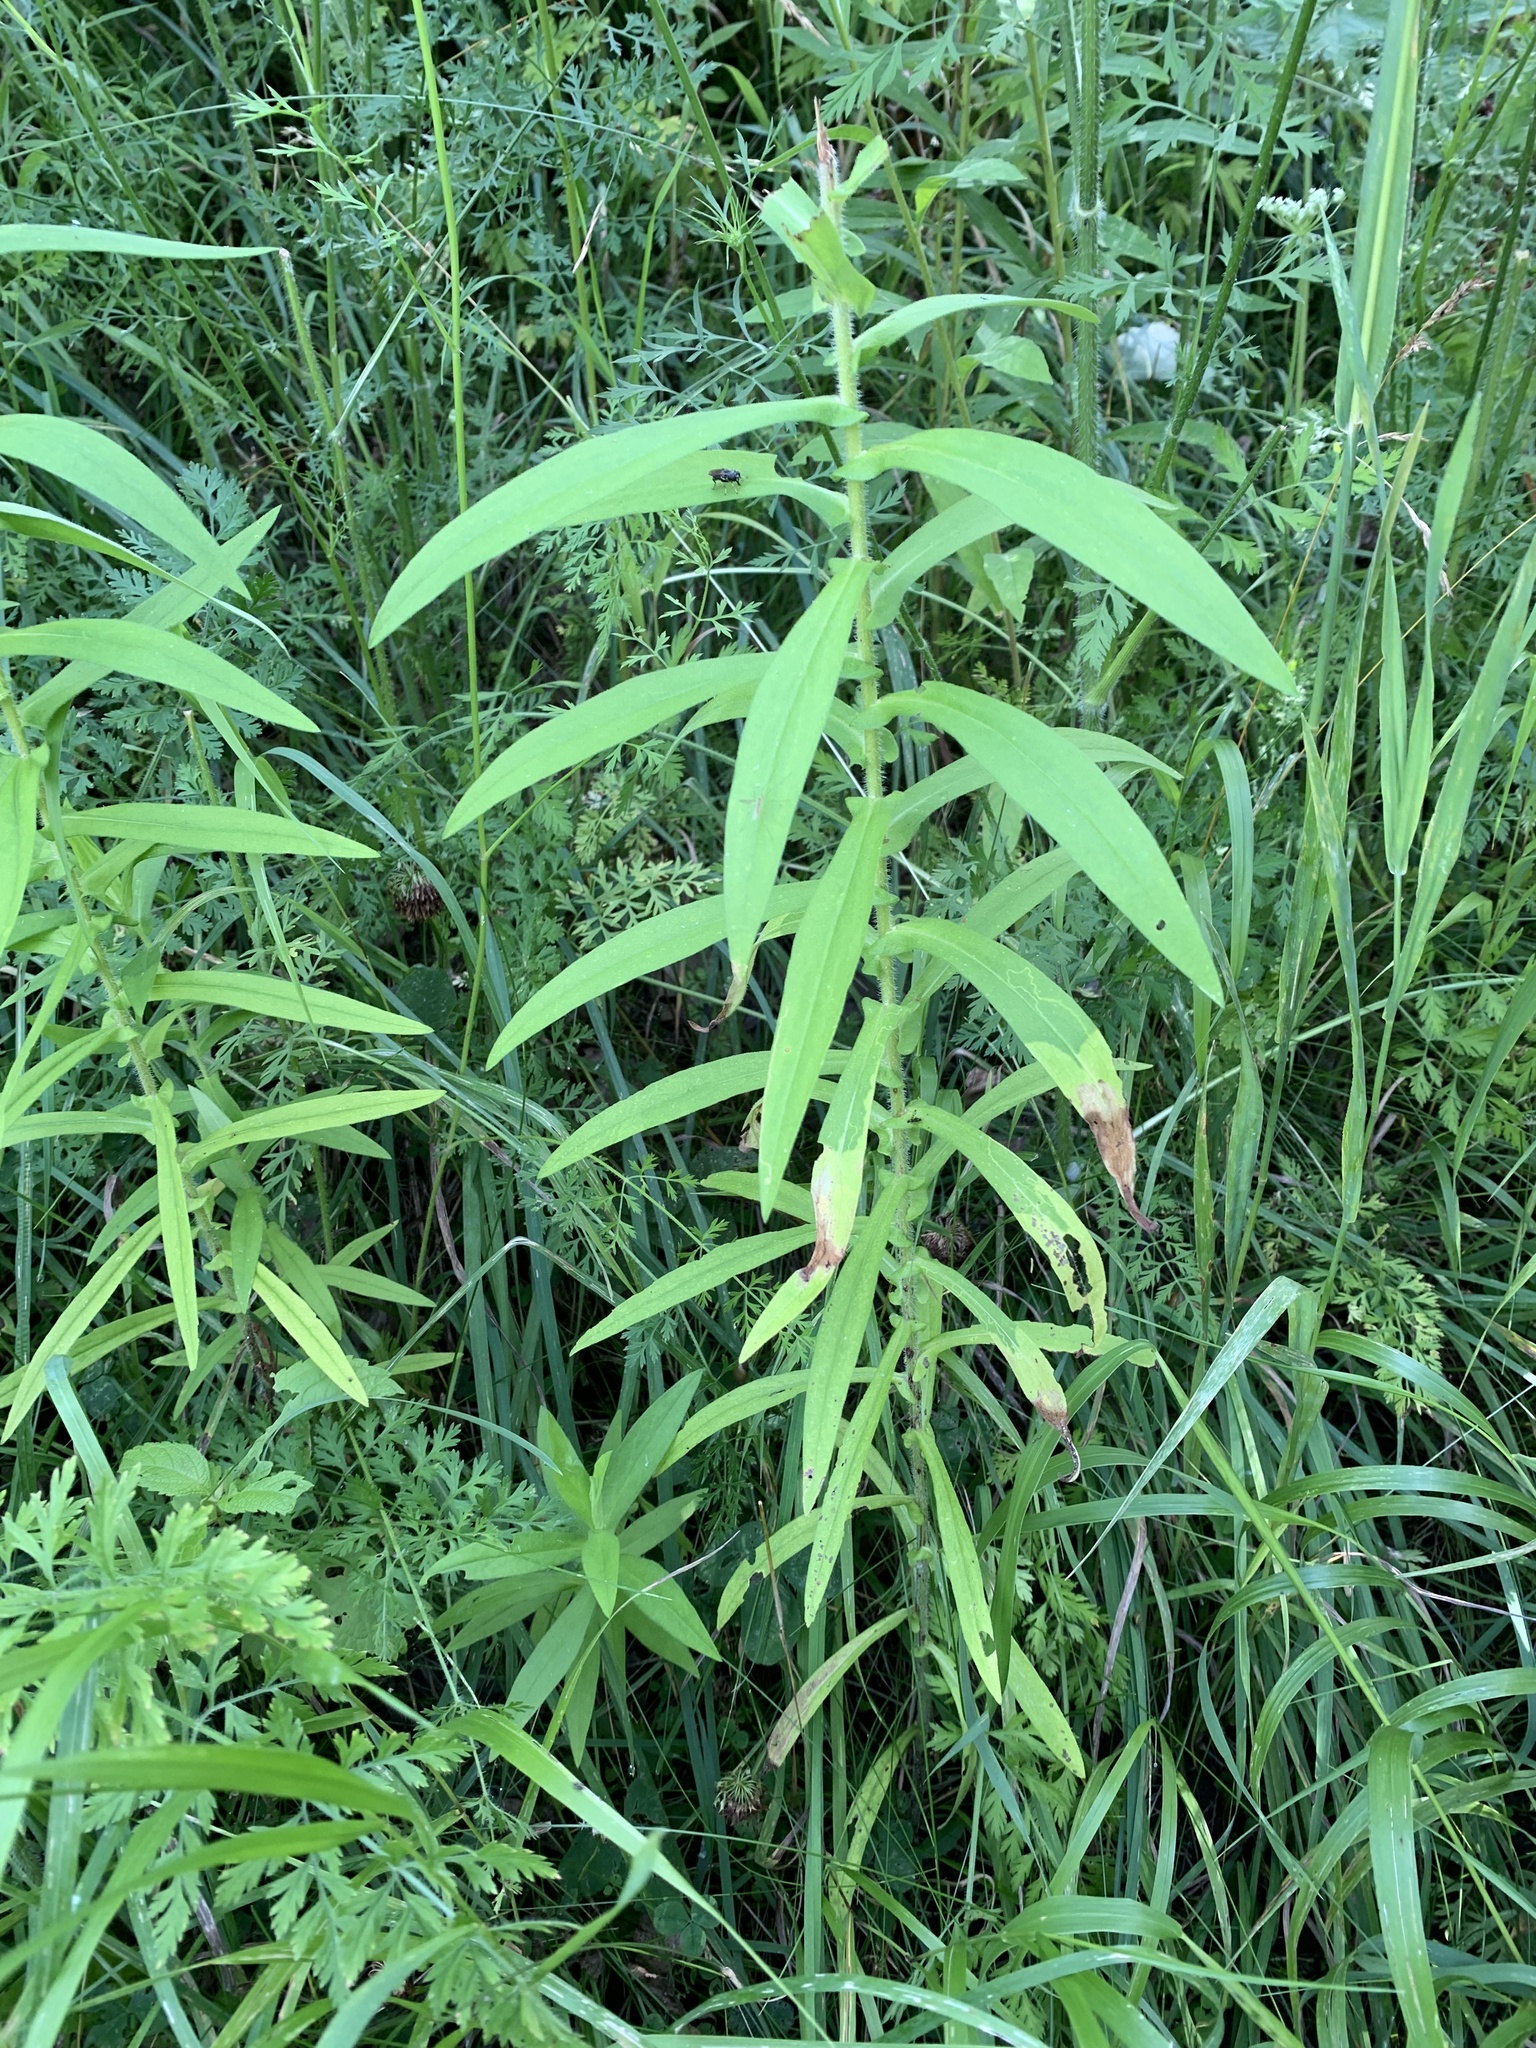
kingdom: Plantae
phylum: Tracheophyta
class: Magnoliopsida
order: Asterales
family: Asteraceae
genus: Symphyotrichum
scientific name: Symphyotrichum novae-angliae
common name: Michaelmas daisy
